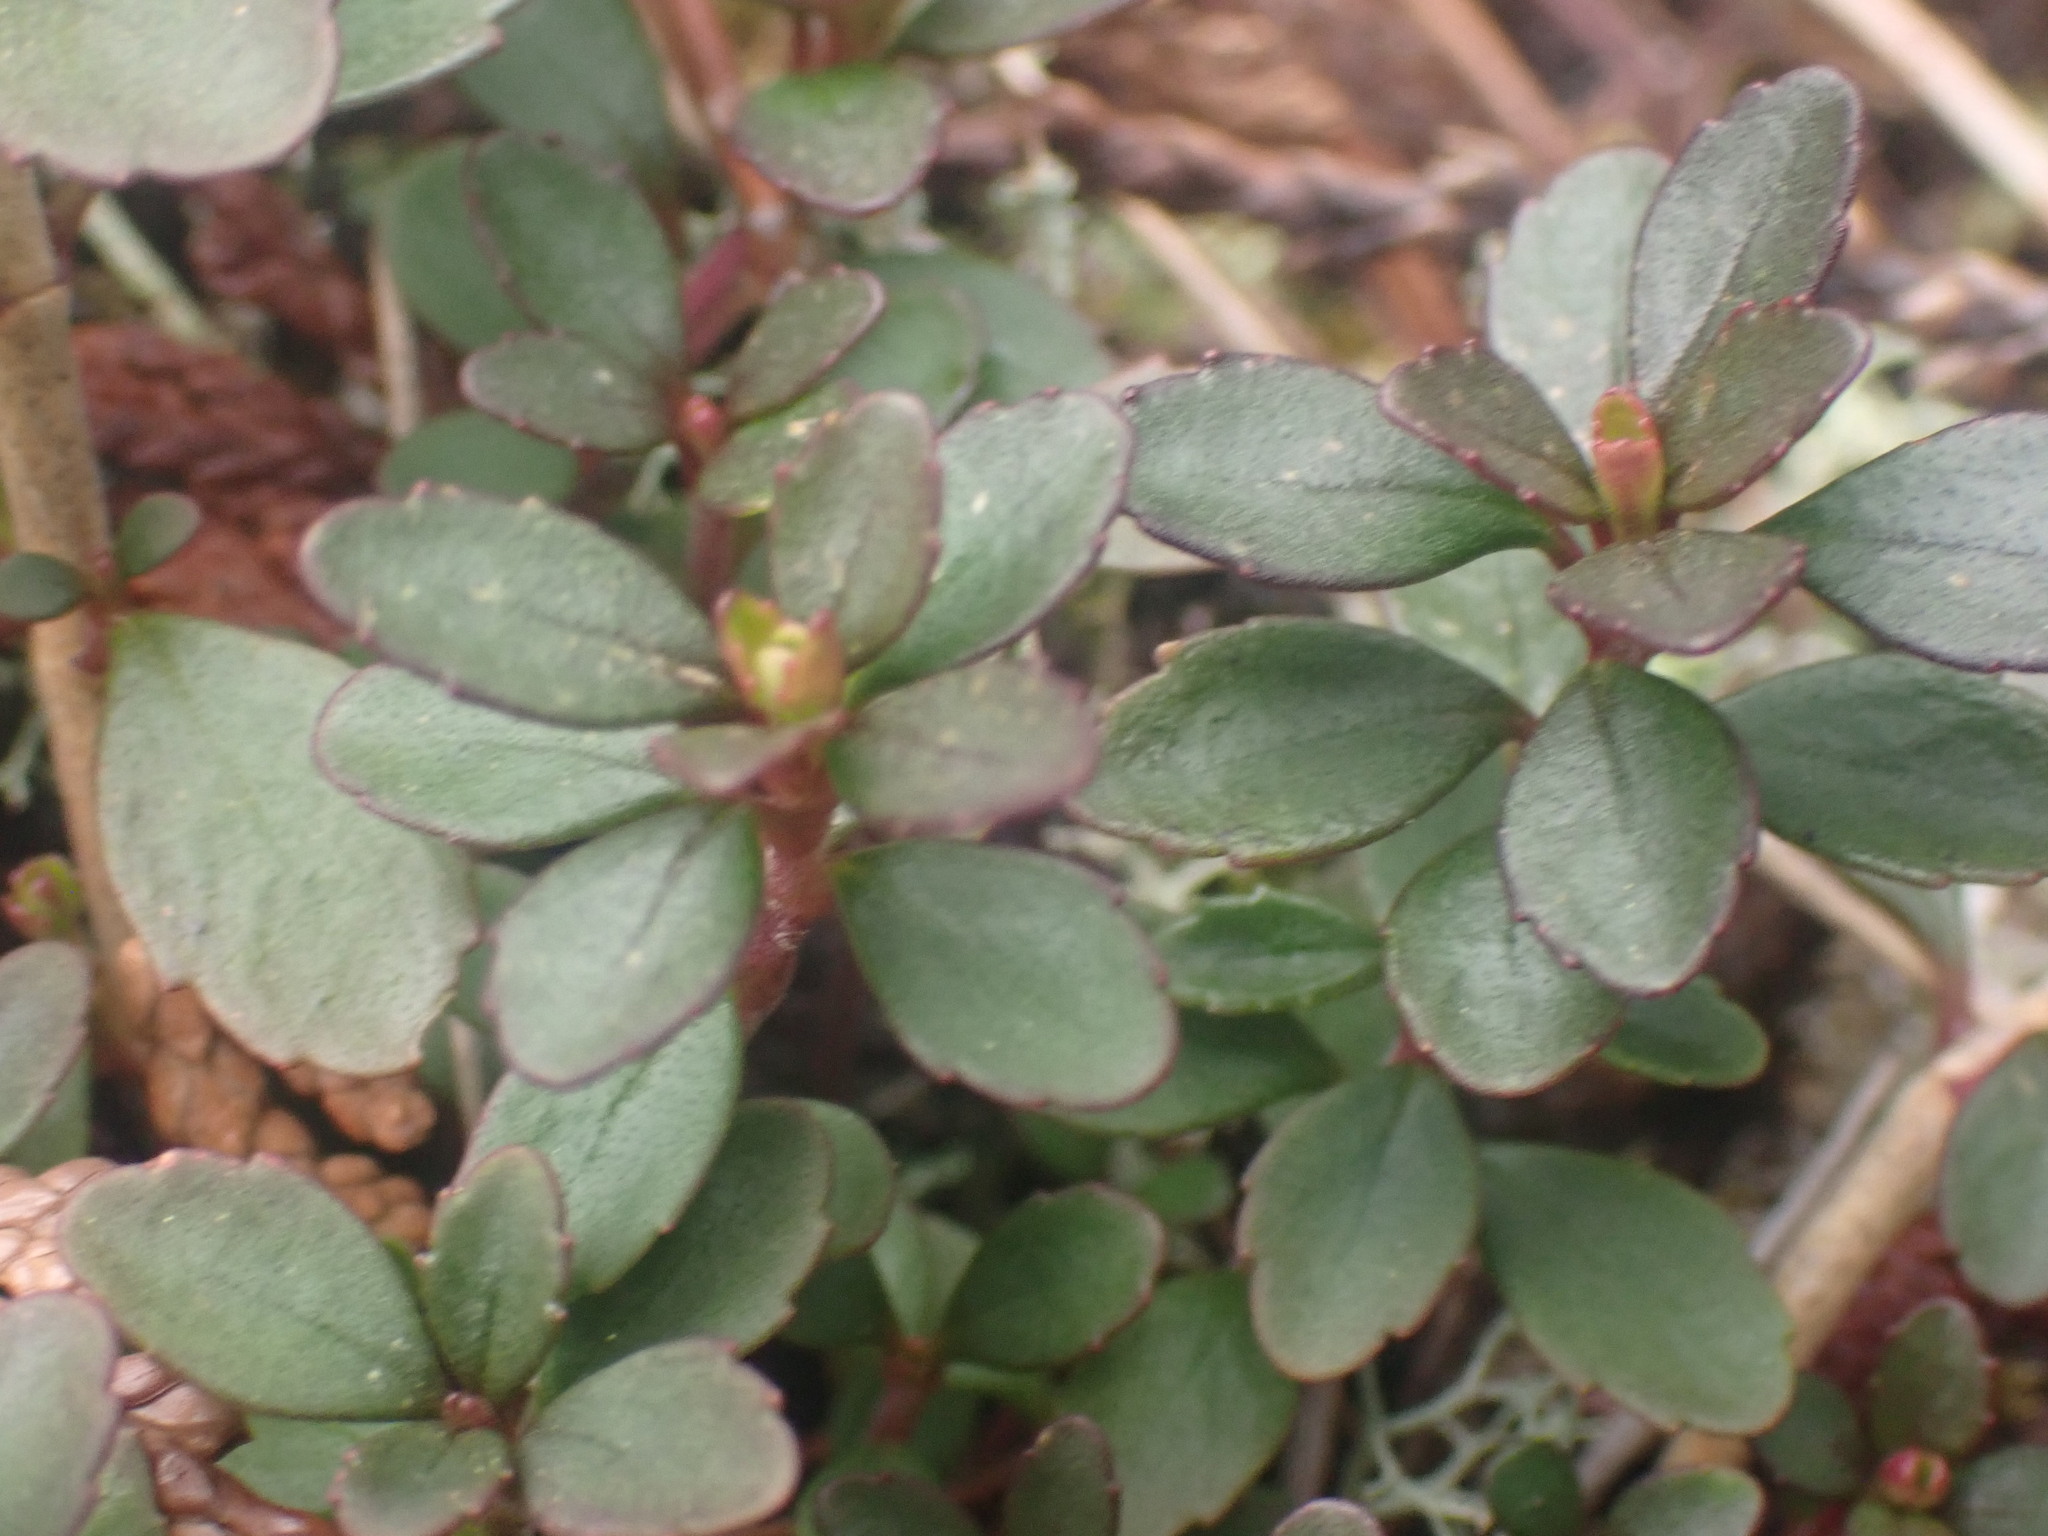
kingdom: Plantae
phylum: Tracheophyta
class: Magnoliopsida
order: Lamiales
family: Plantaginaceae
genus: Penstemon
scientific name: Penstemon davidsonii
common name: Davidson's penstemon
